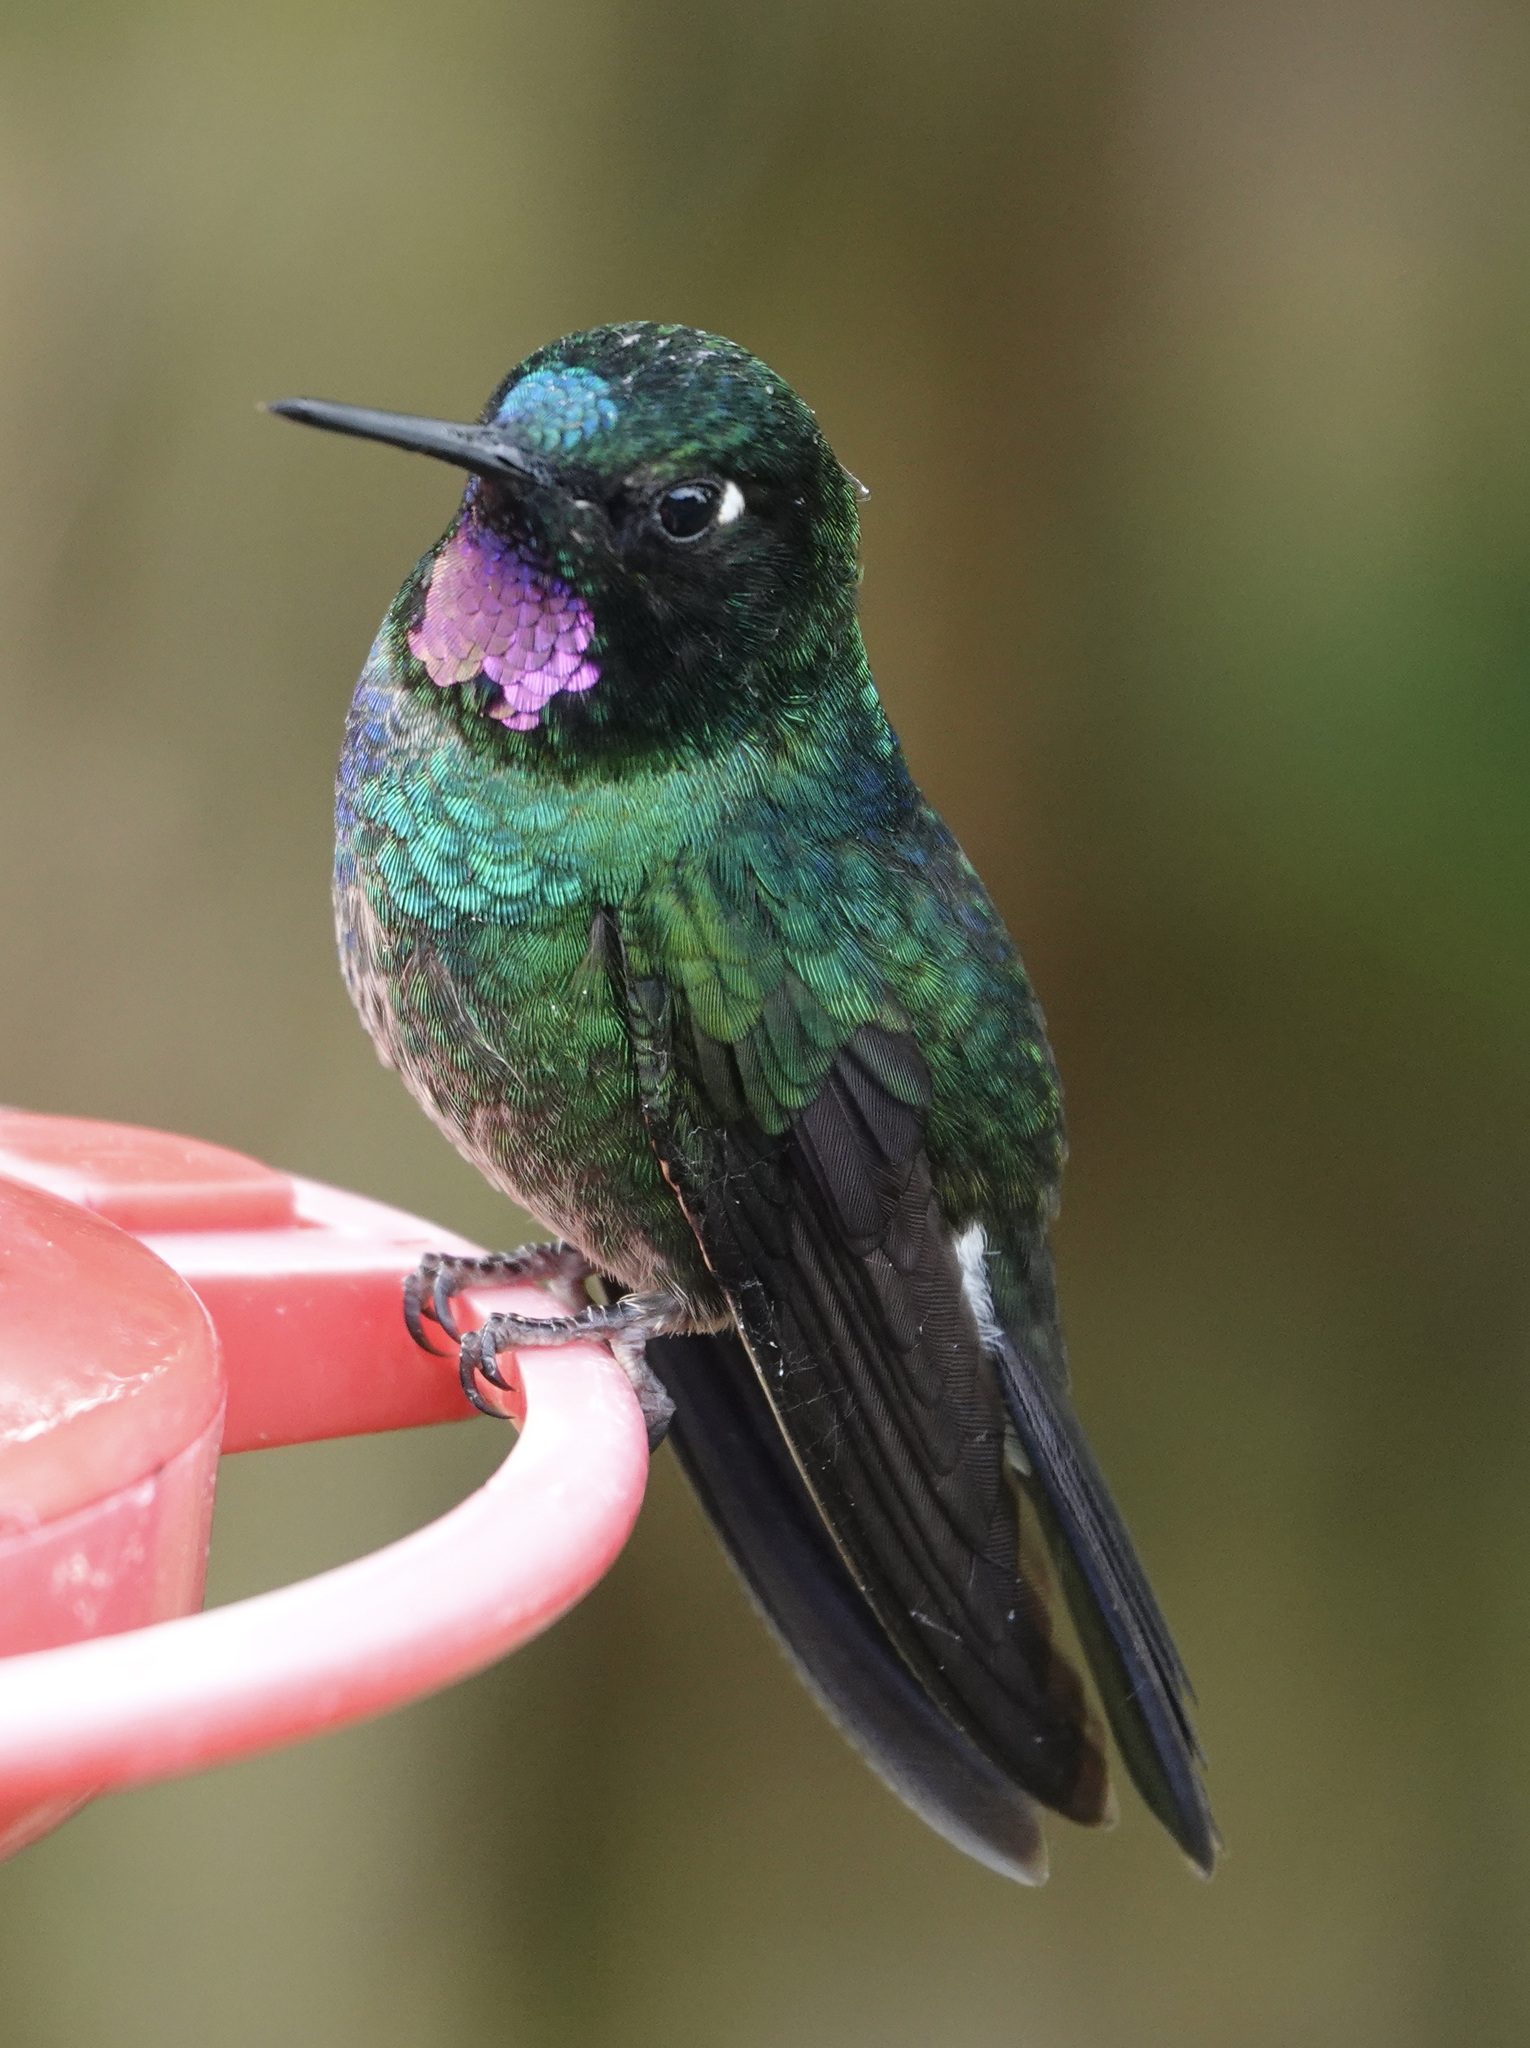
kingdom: Animalia
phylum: Chordata
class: Aves
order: Apodiformes
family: Trochilidae
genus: Heliangelus
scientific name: Heliangelus exortis
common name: Tourmaline sunangel
